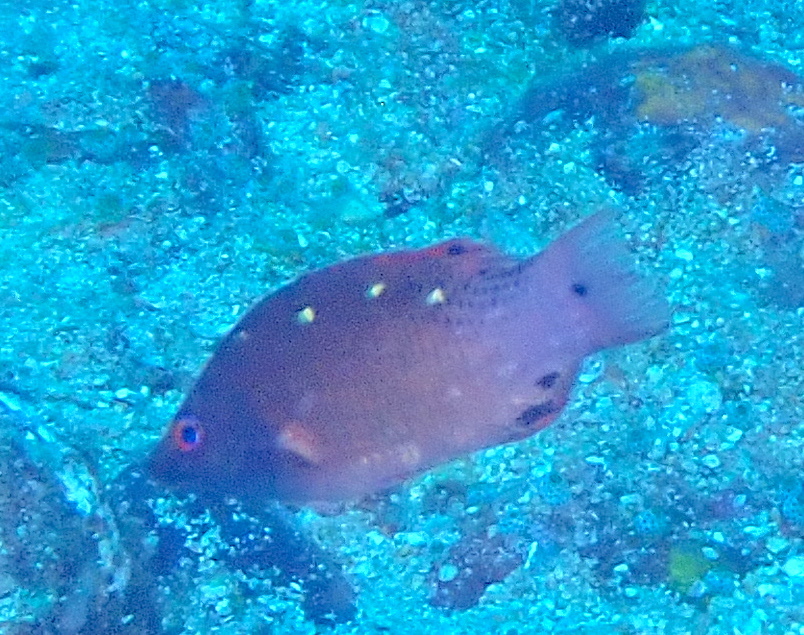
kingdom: Animalia
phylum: Chordata
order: Perciformes
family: Labridae
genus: Bodianus
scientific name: Bodianus dictynna
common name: Diana's hogfish
